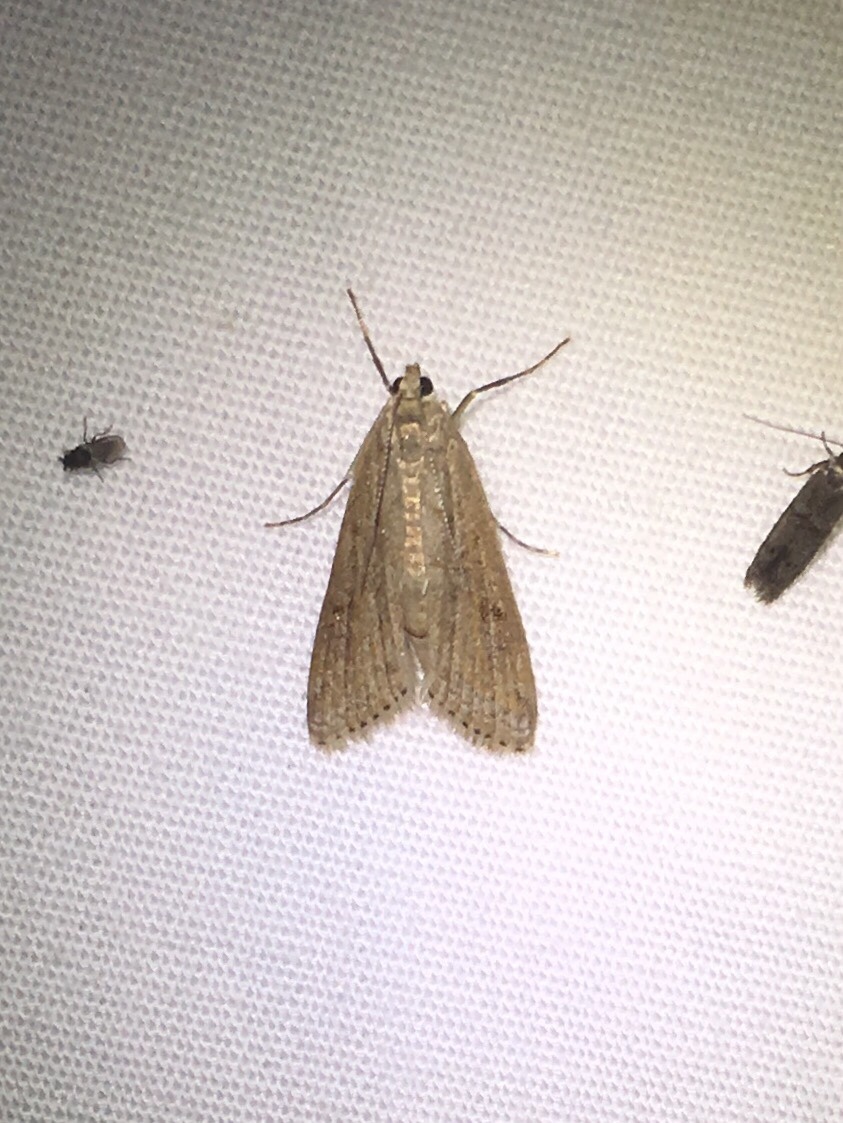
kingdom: Animalia
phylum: Arthropoda
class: Insecta
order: Lepidoptera
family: Crambidae
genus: Parapoynx
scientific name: Parapoynx allionealis
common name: Bladderwort casemaker
